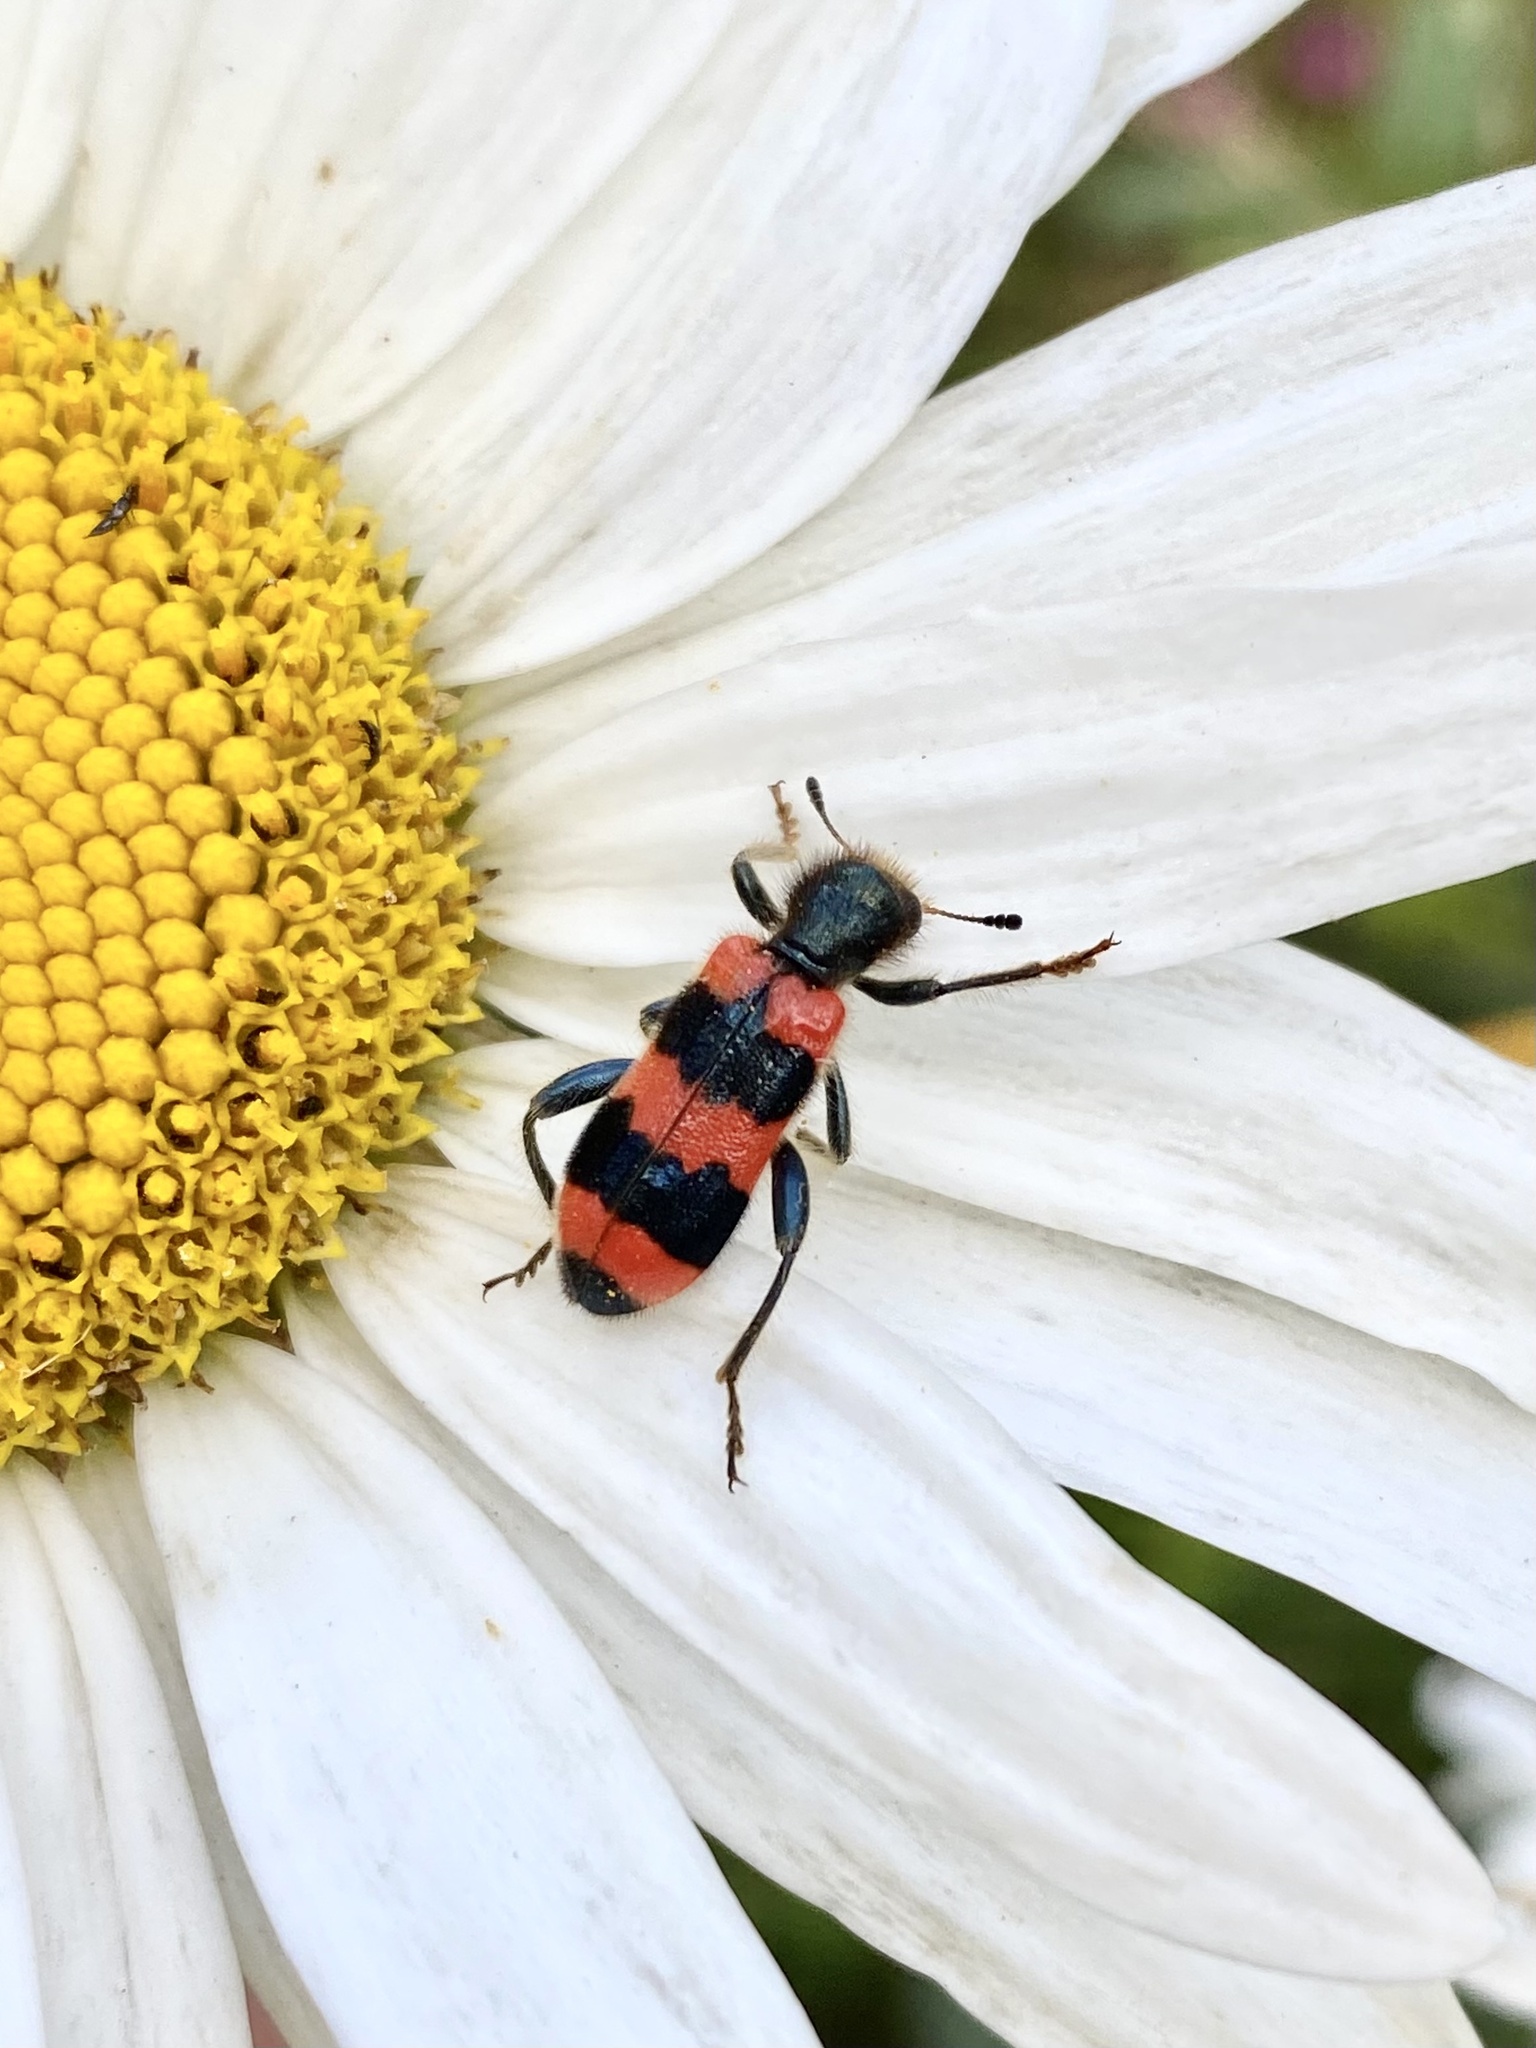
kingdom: Animalia
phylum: Arthropoda
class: Insecta
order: Coleoptera
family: Cleridae
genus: Trichodes
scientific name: Trichodes apiarius
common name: Bee-eating beetle
